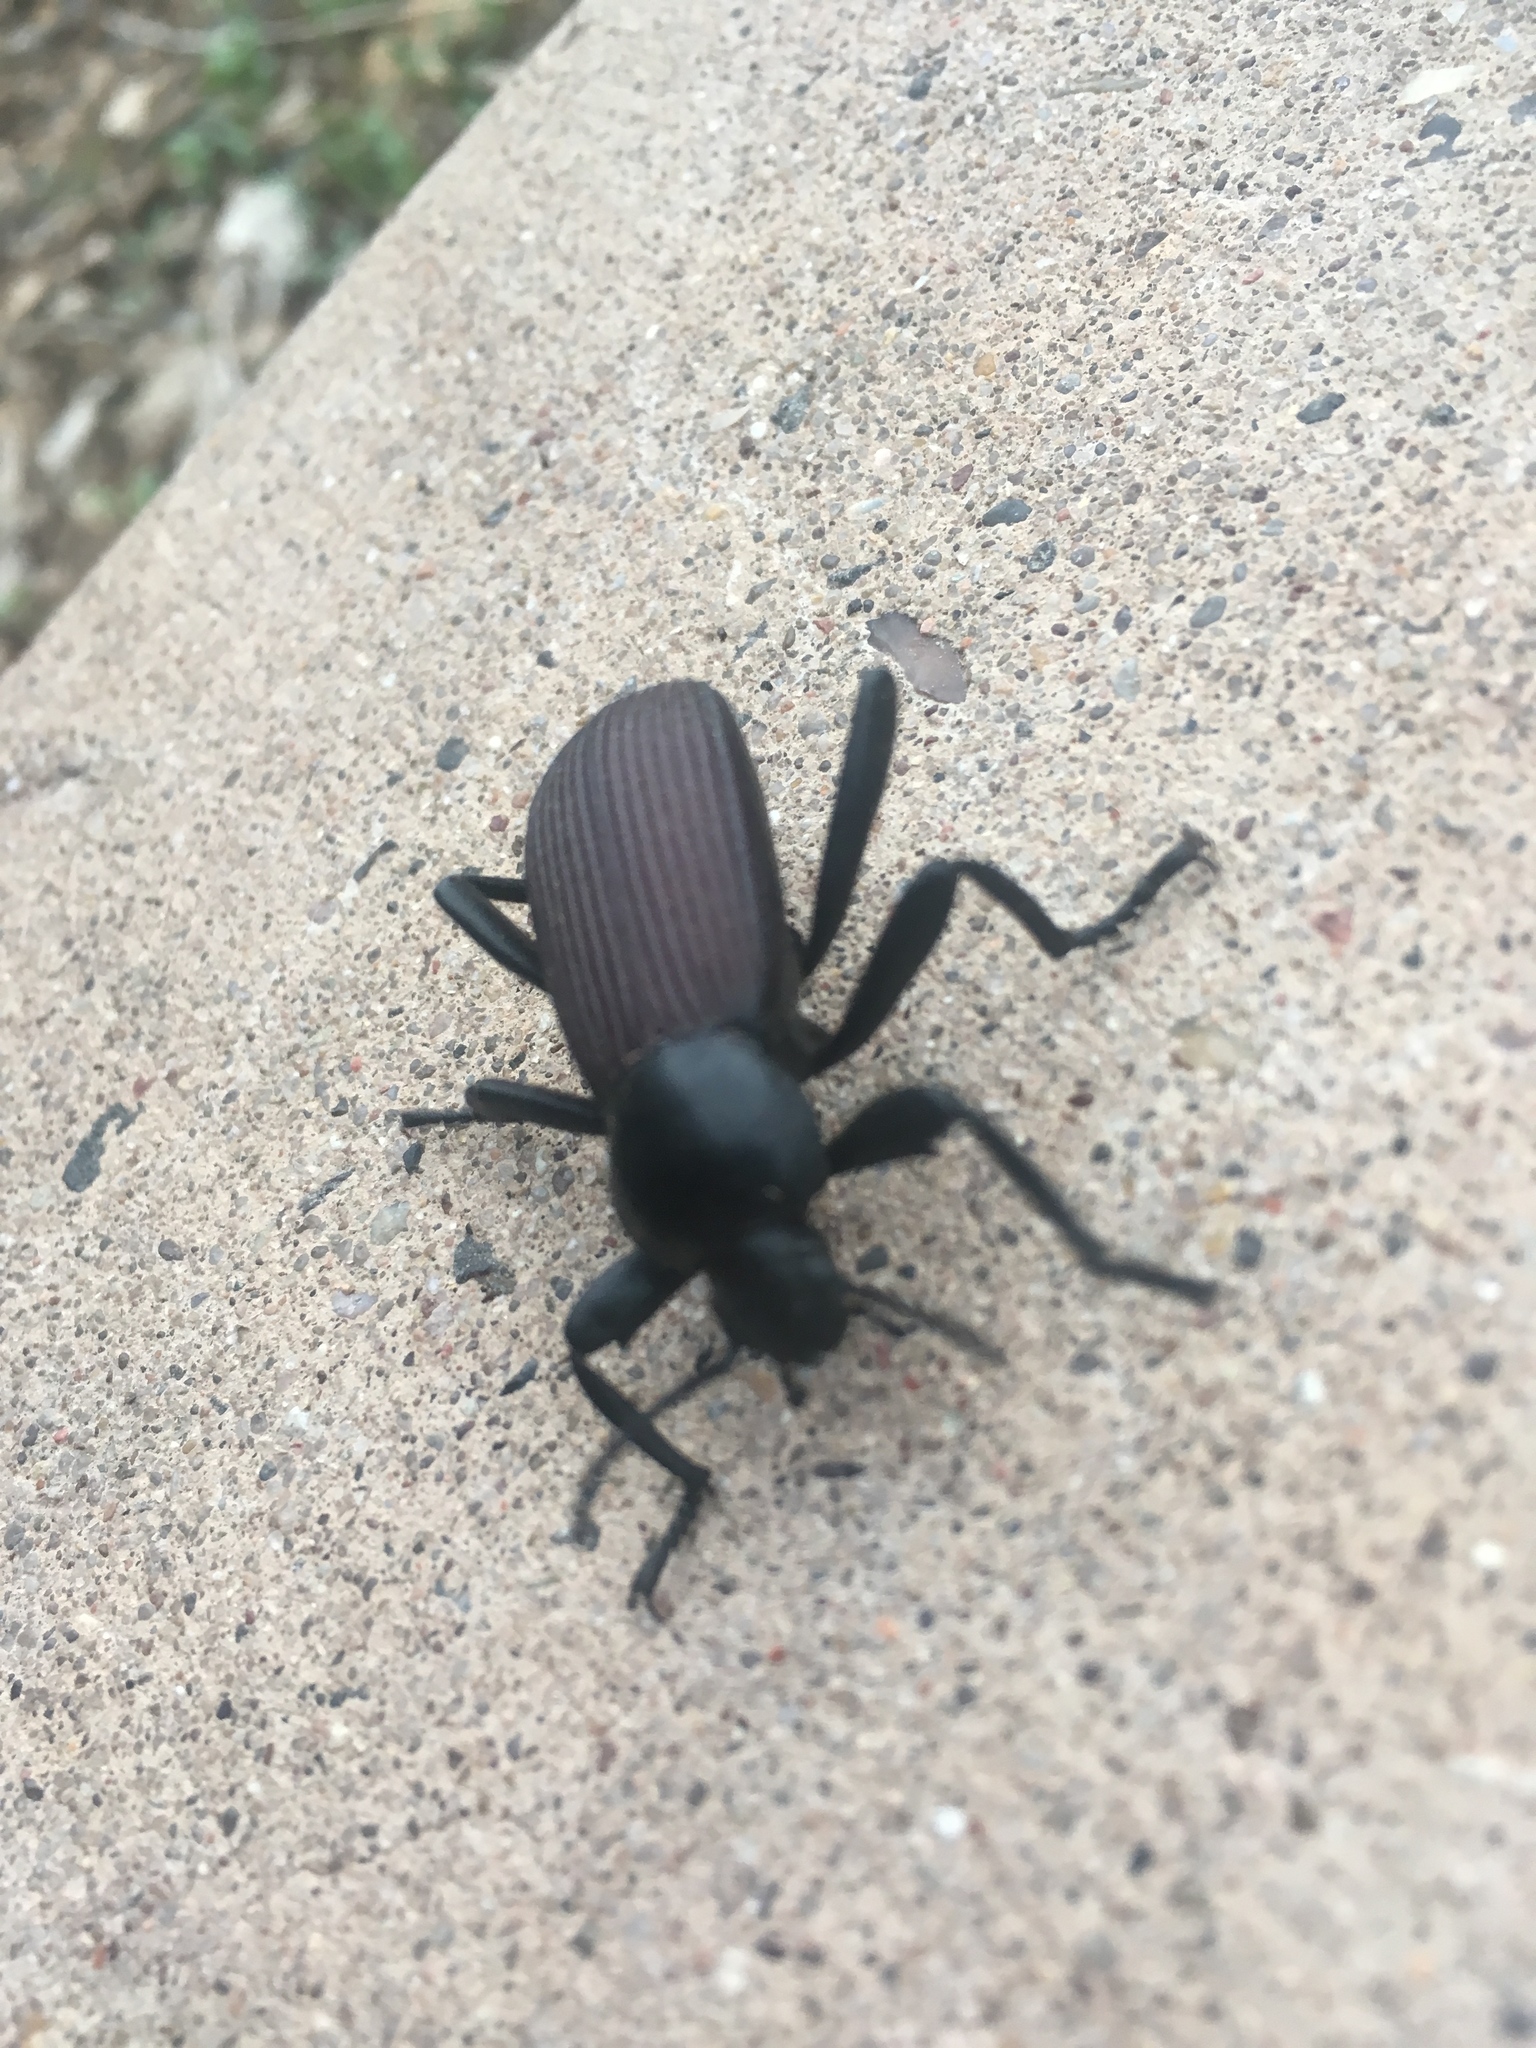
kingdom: Animalia
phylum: Arthropoda
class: Insecta
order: Coleoptera
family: Tenebrionidae
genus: Eleodes
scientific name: Eleodes obscura
